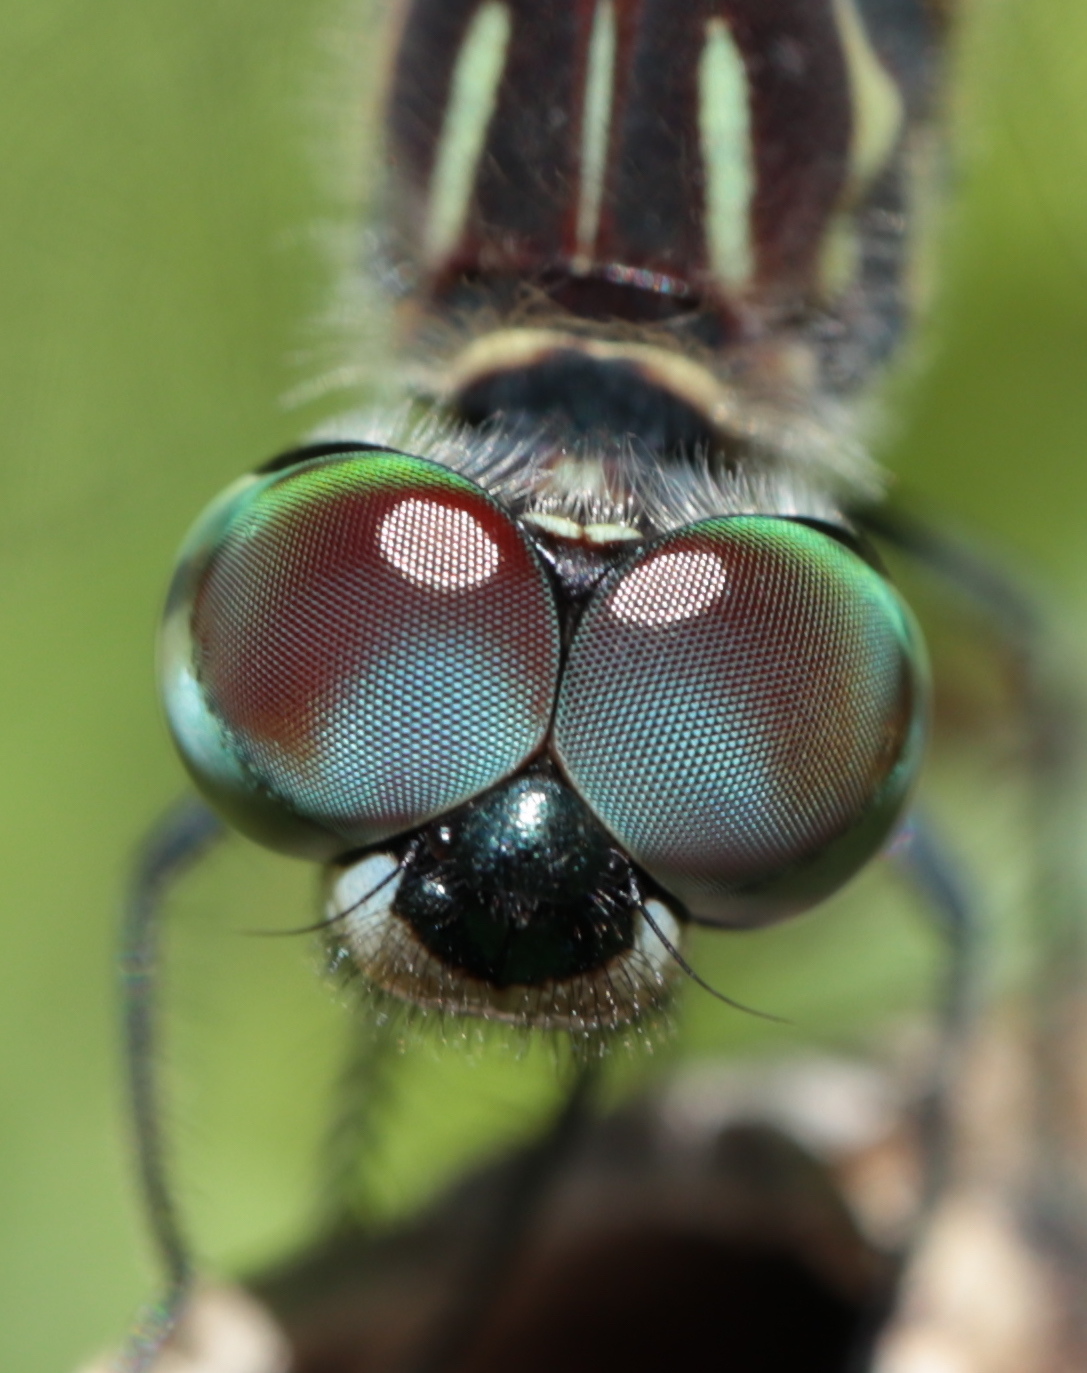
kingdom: Animalia
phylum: Arthropoda
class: Insecta
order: Odonata
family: Libellulidae
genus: Pachydiplax
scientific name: Pachydiplax longipennis
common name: Blue dasher
